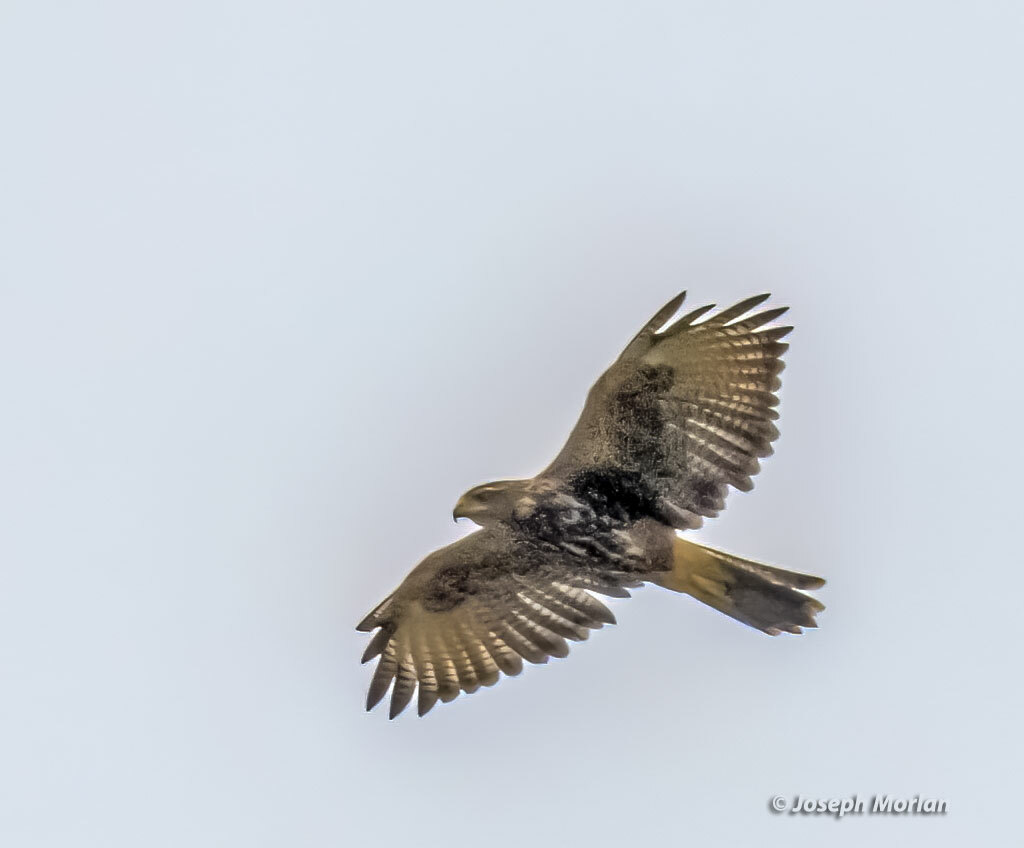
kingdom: Animalia
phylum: Chordata
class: Aves
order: Accipitriformes
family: Accipitridae
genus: Parabuteo
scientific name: Parabuteo unicinctus
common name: Harris's hawk
